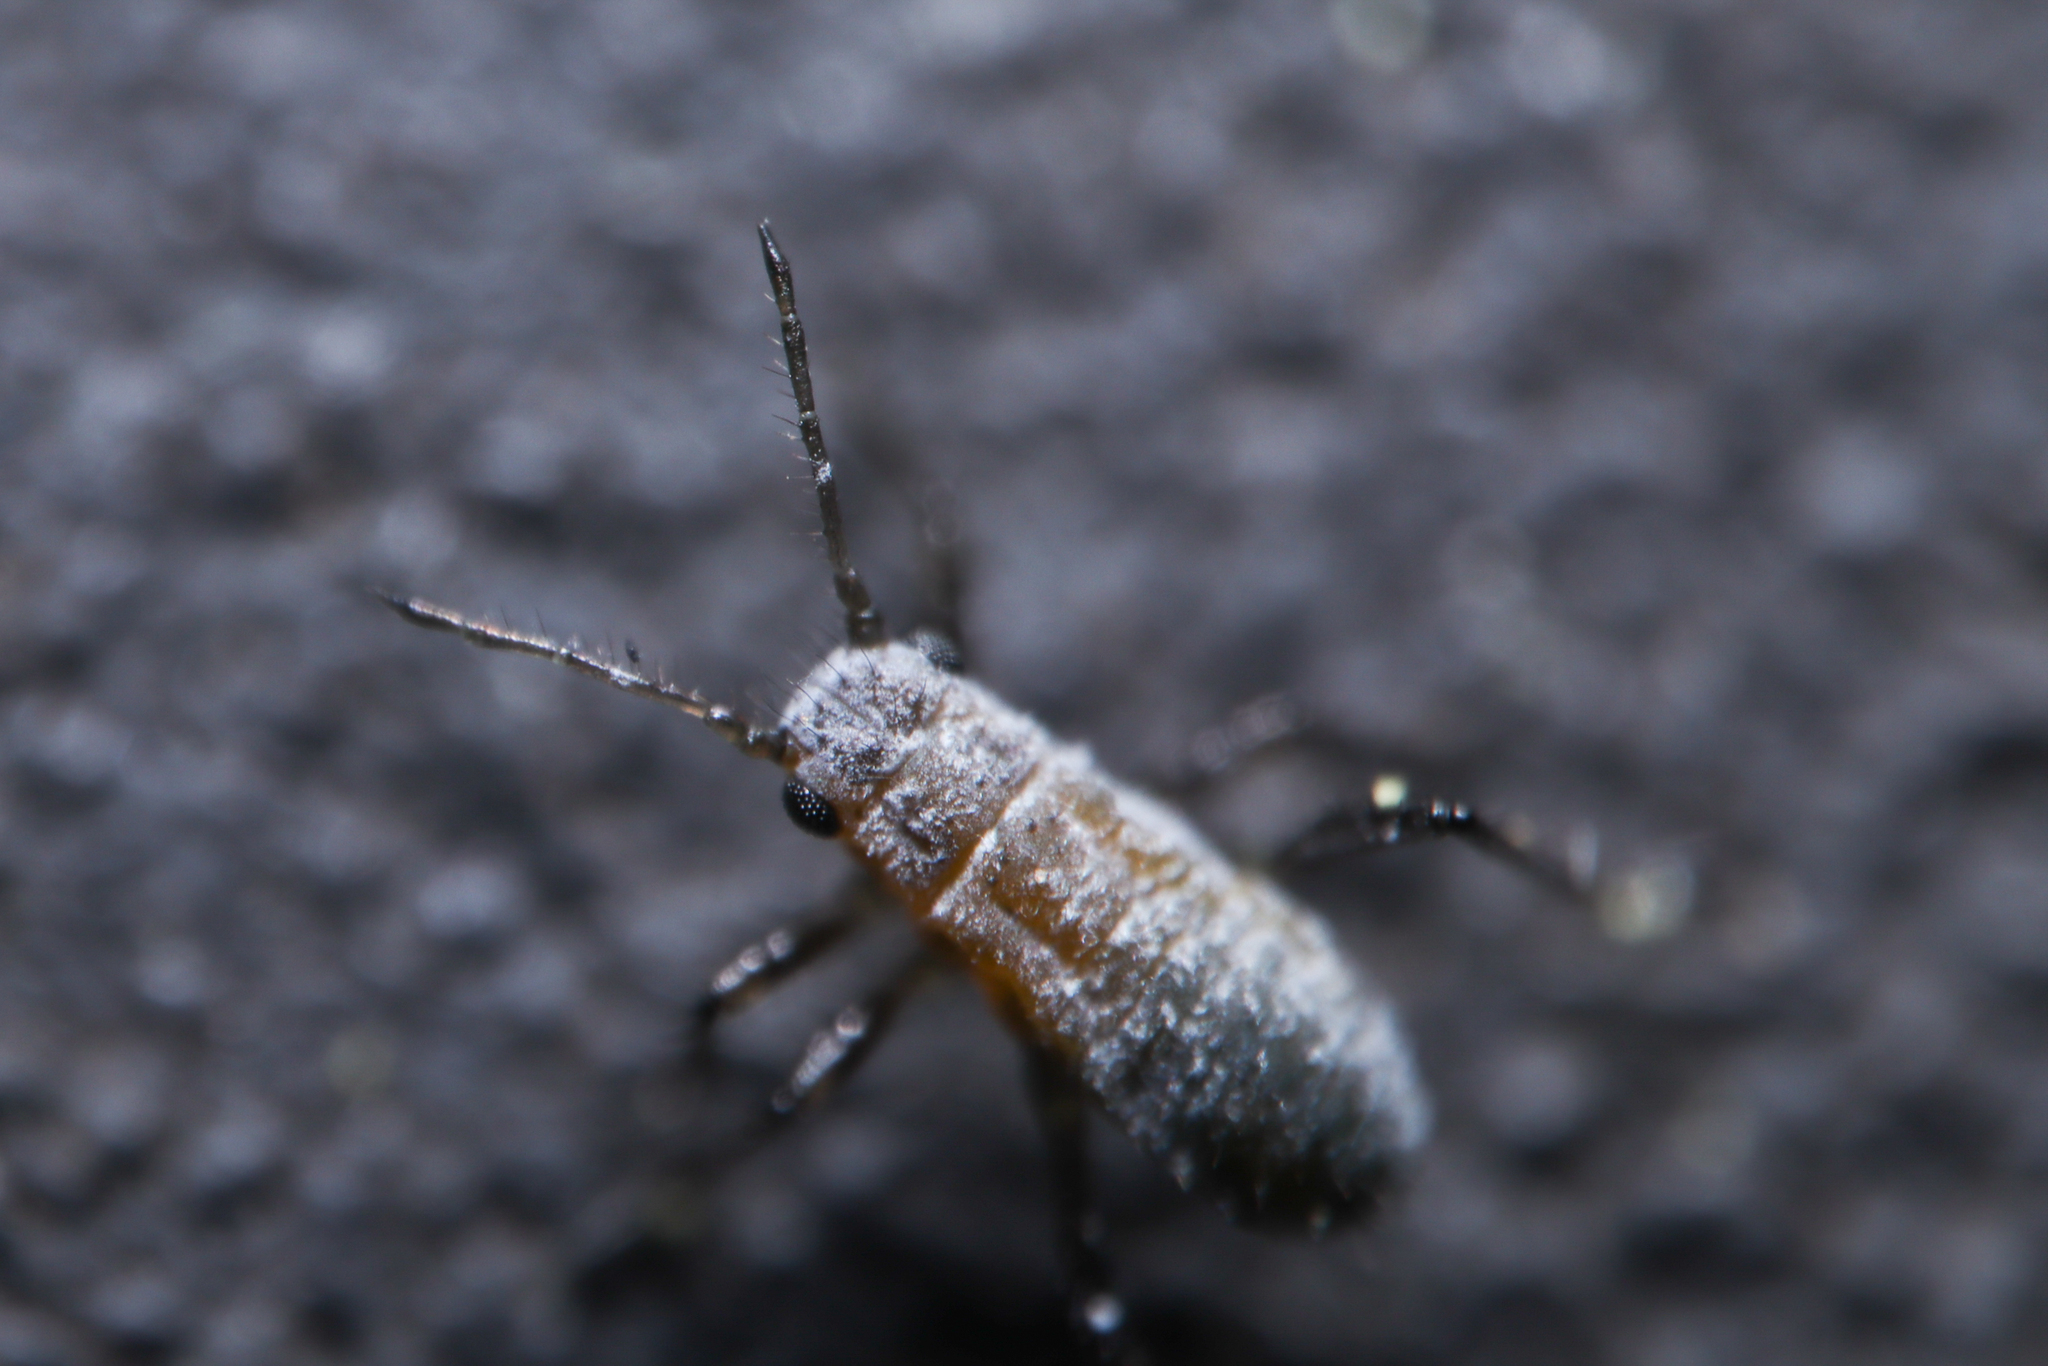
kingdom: Animalia
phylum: Arthropoda
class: Insecta
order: Hemiptera
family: Aphididae
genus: Eulachnus
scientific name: Eulachnus rileyi
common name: Active gray pine needle aphid
